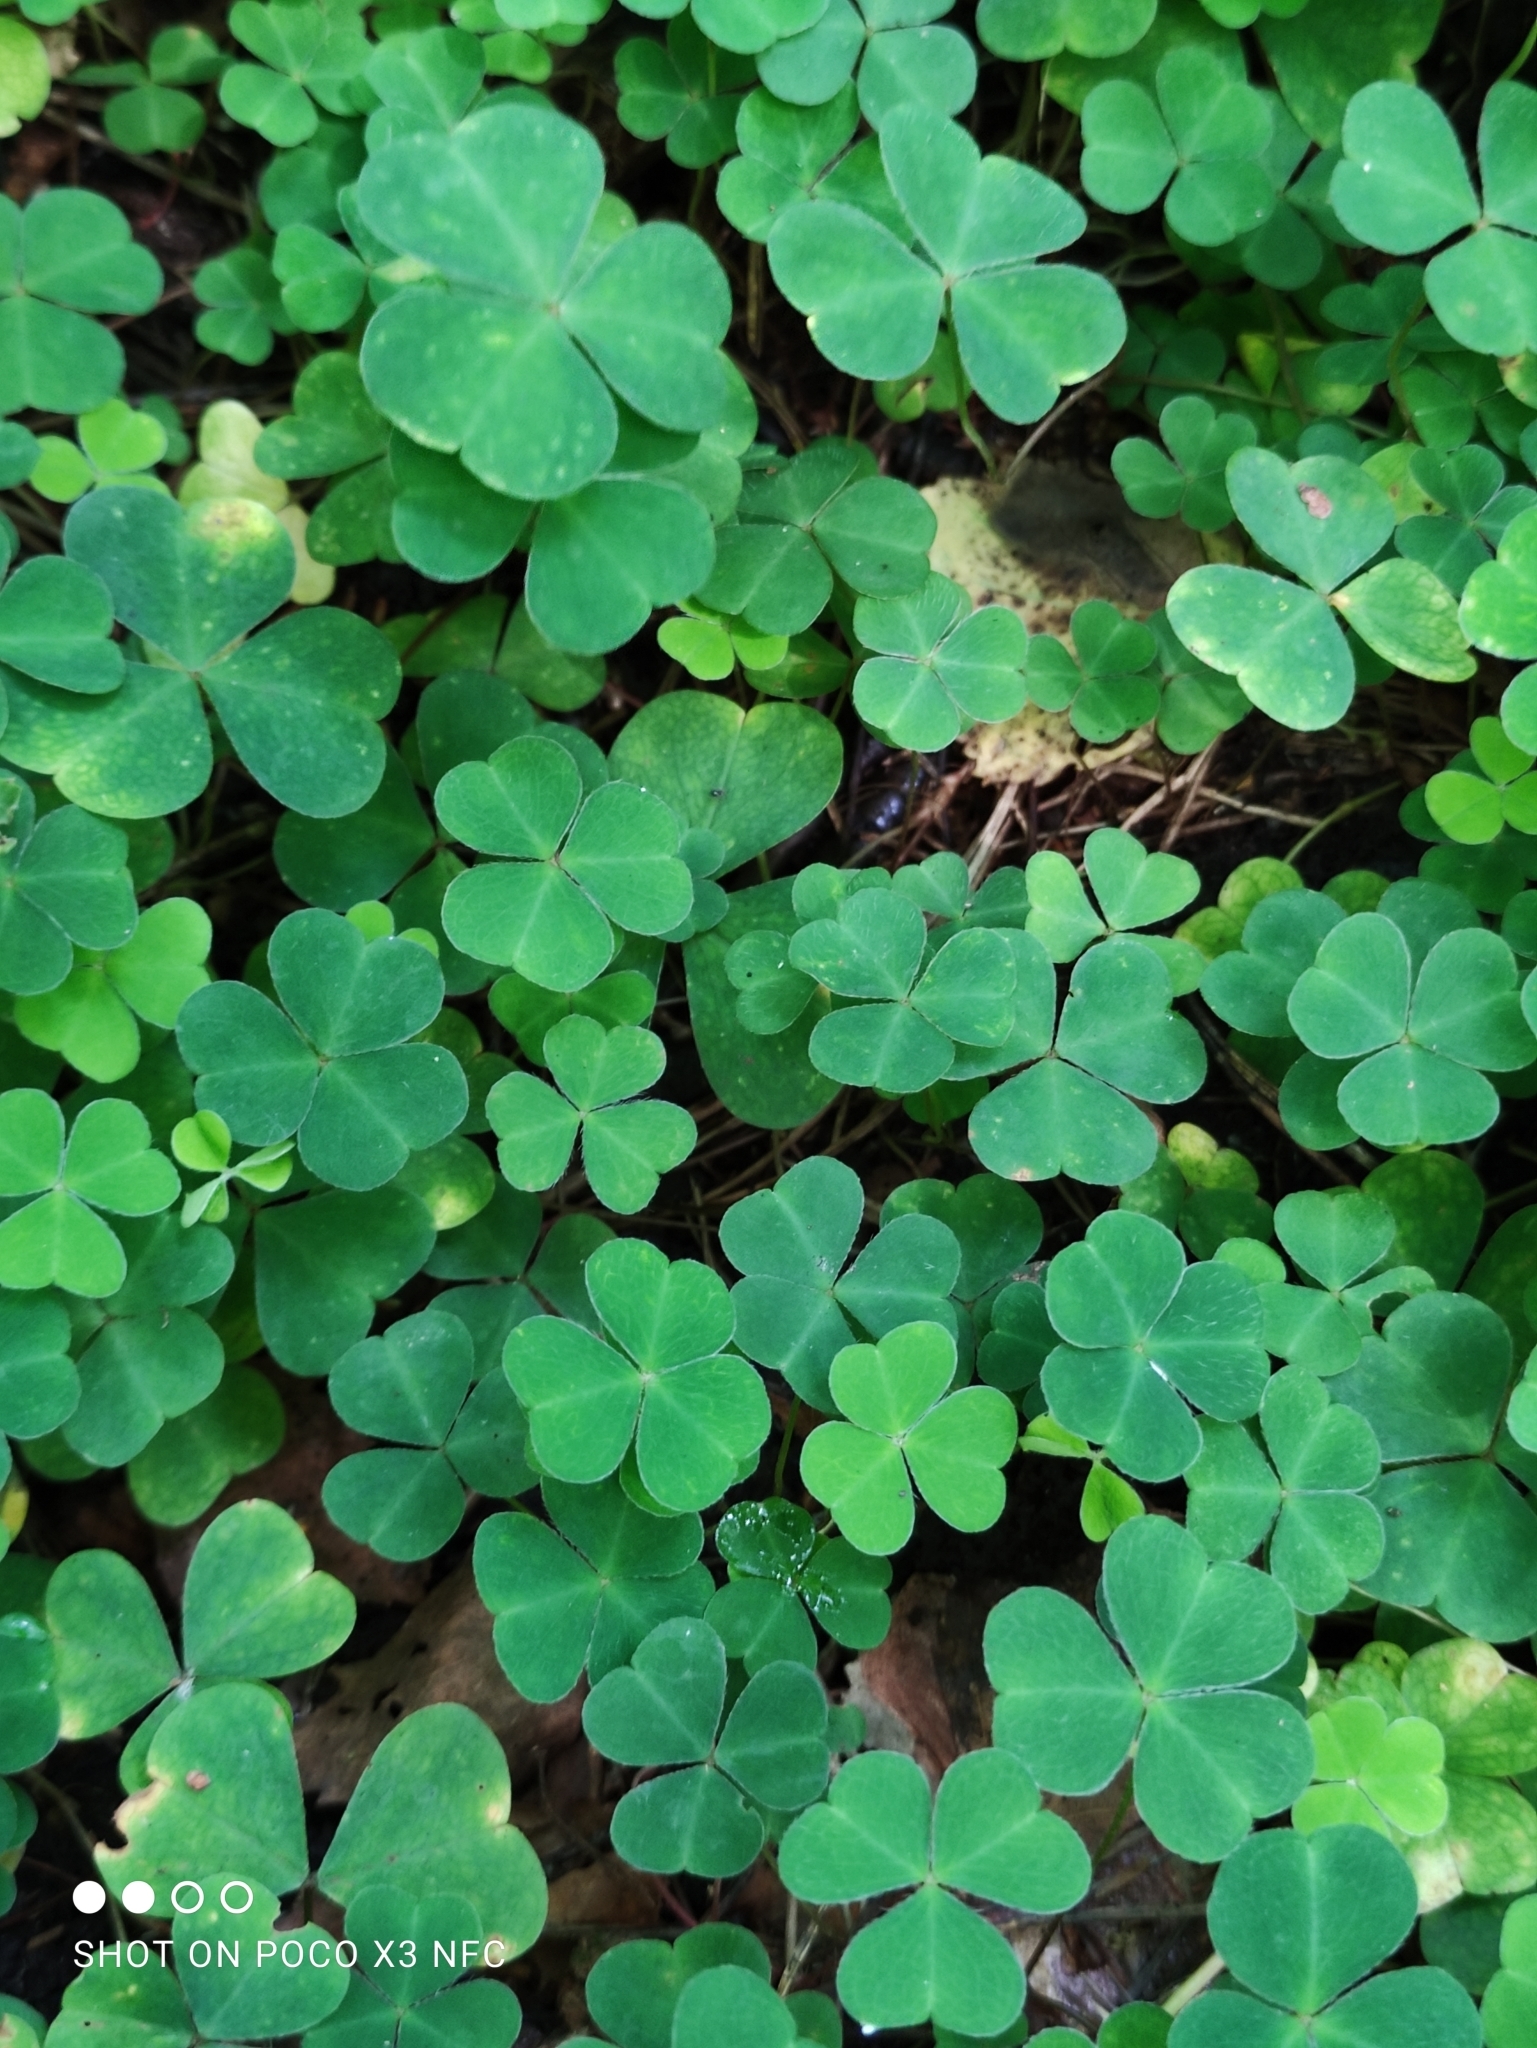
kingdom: Plantae
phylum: Tracheophyta
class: Magnoliopsida
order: Oxalidales
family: Oxalidaceae
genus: Oxalis
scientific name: Oxalis acetosella
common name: Wood-sorrel
